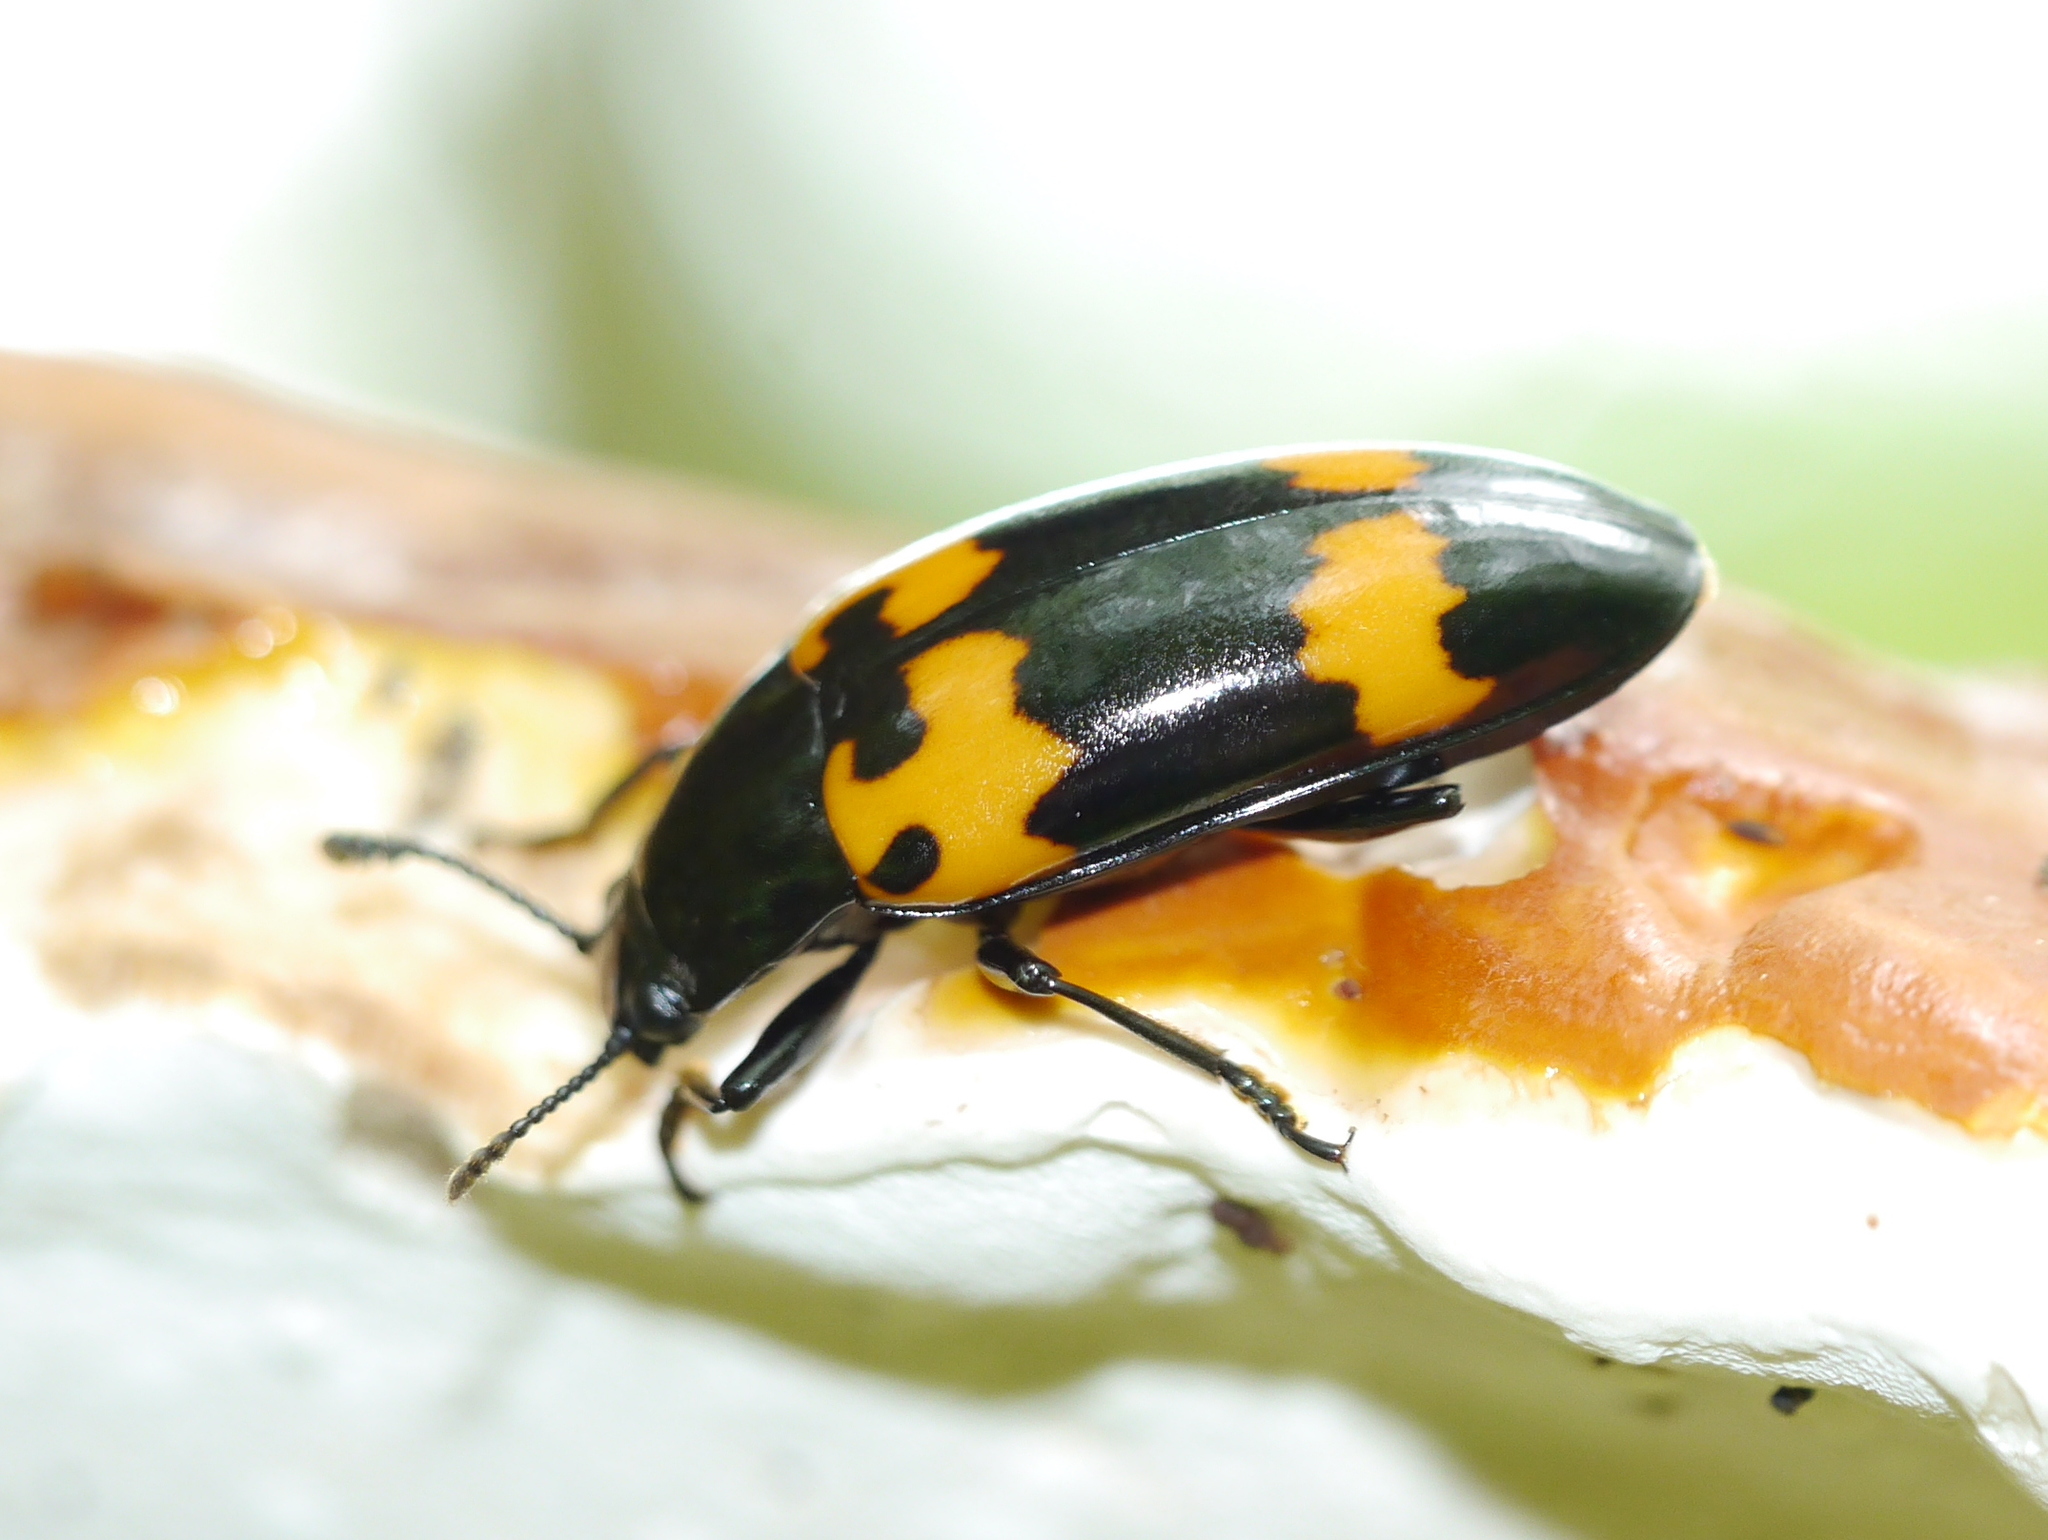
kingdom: Animalia
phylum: Arthropoda
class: Insecta
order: Coleoptera
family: Erotylidae
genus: Megalodacne
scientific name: Megalodacne heros
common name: Pleasing fungus beetle
